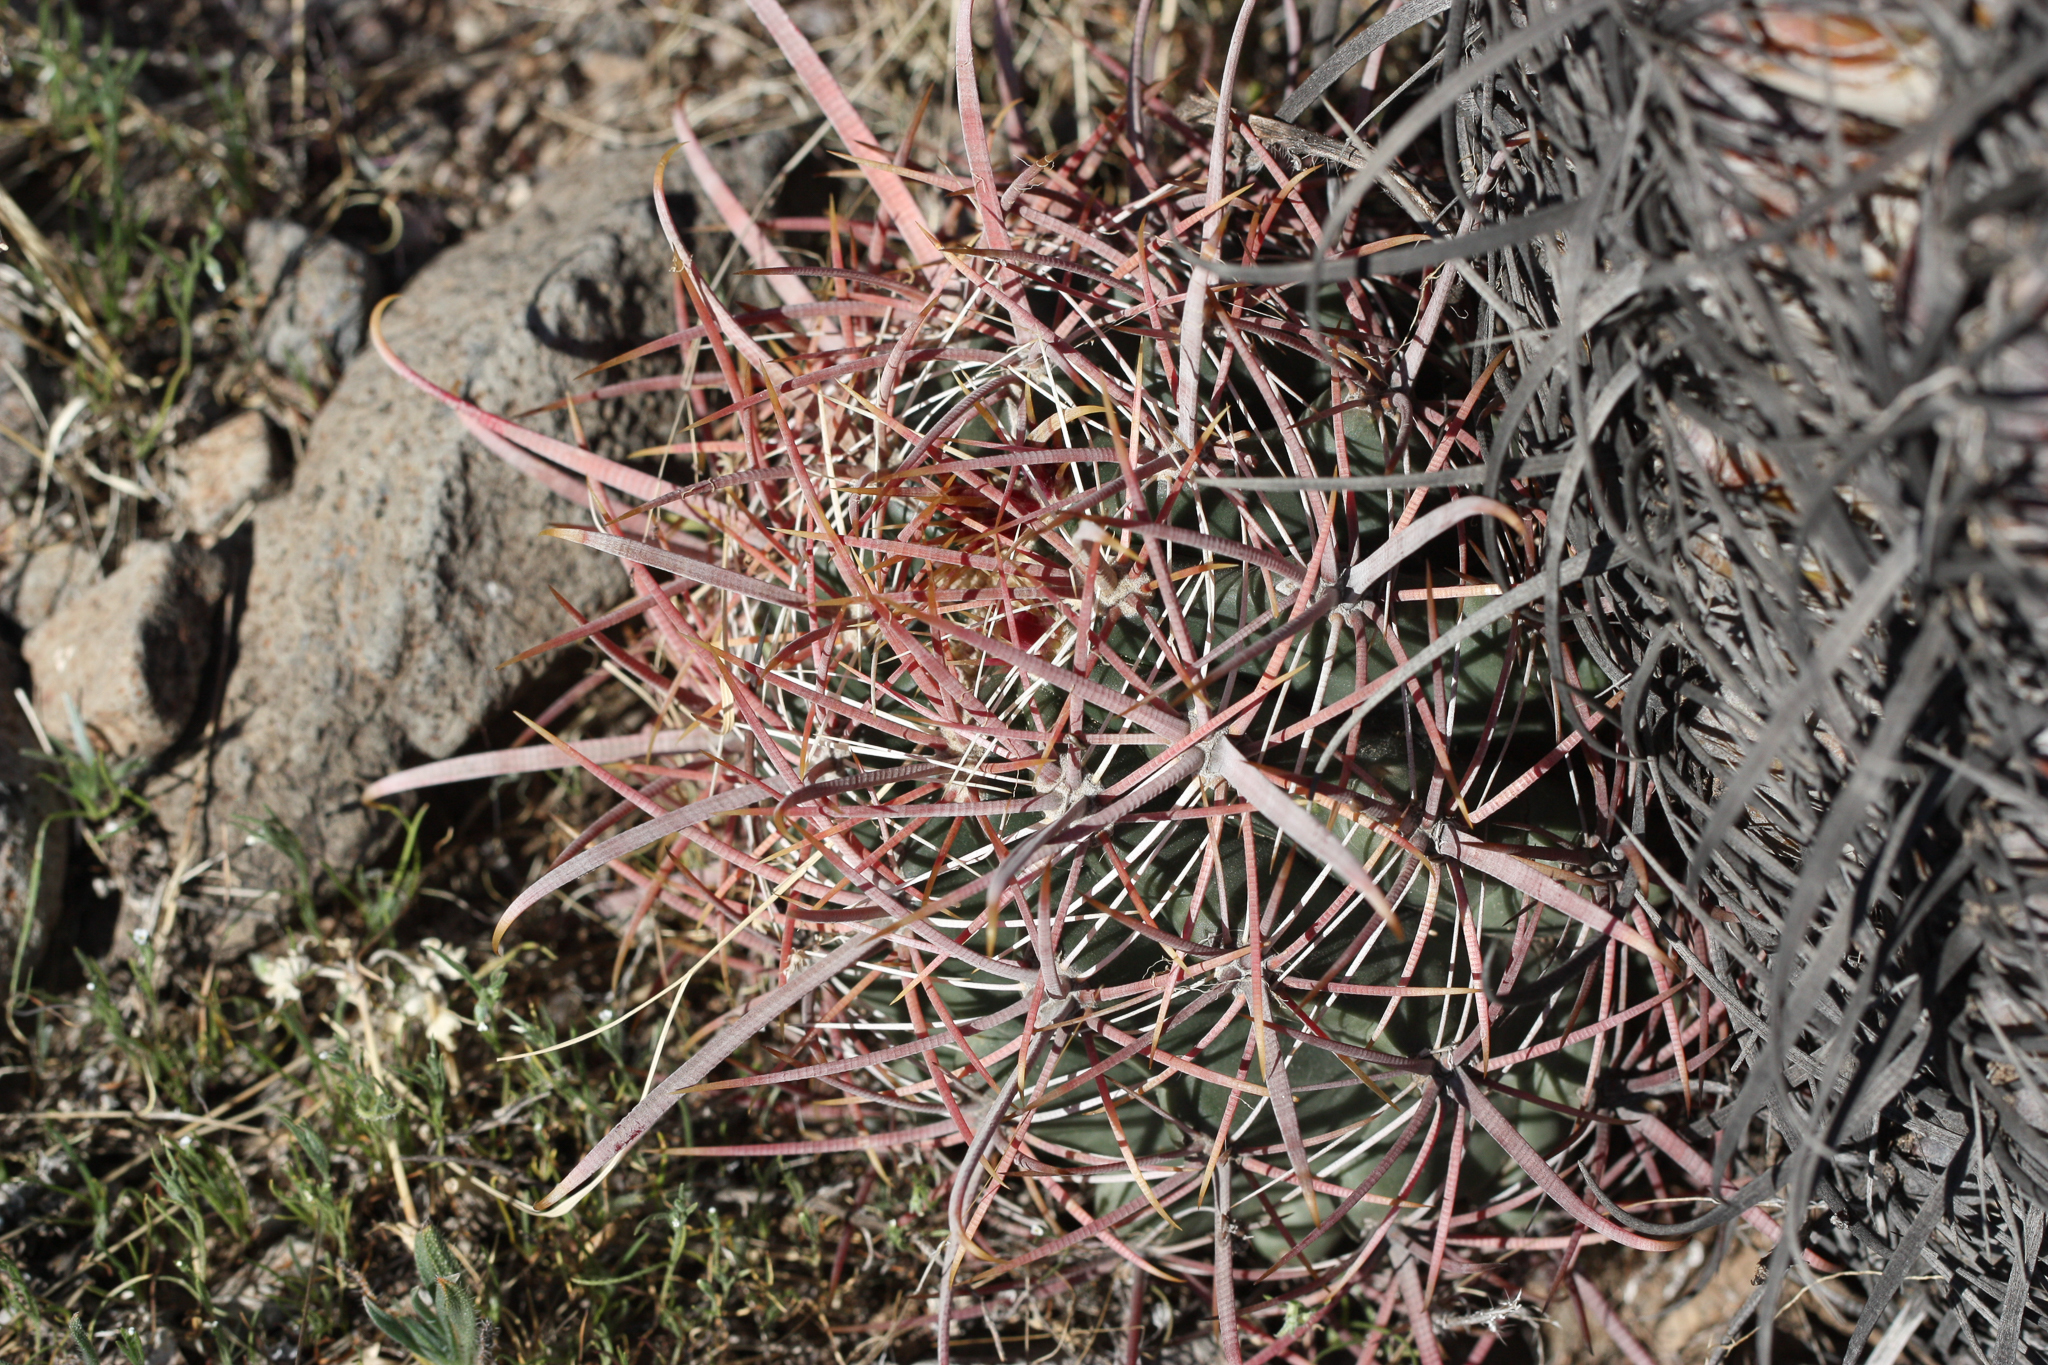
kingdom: Plantae
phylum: Tracheophyta
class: Magnoliopsida
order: Caryophyllales
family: Cactaceae
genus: Ferocactus
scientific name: Ferocactus cylindraceus
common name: California barrel cactus
